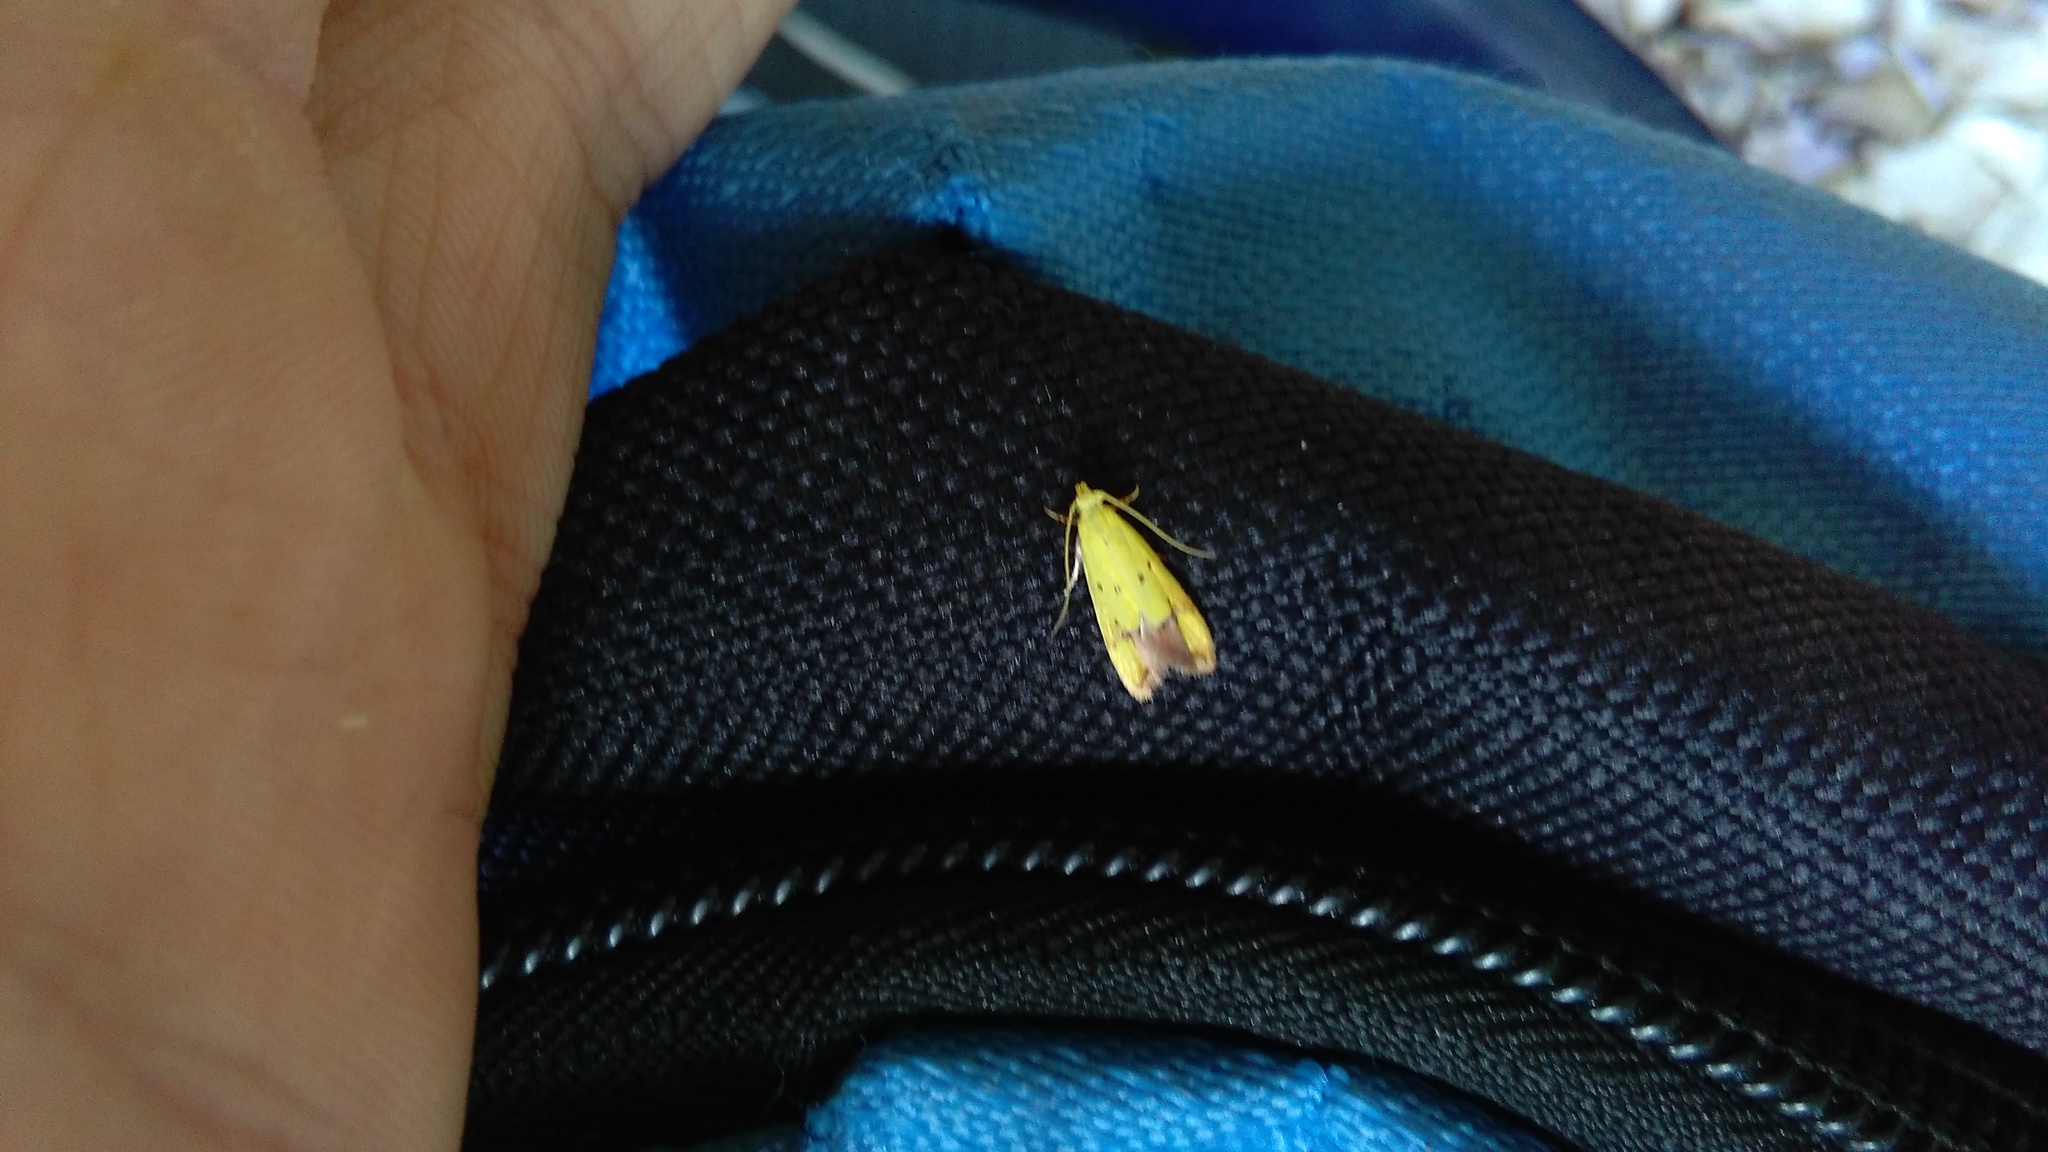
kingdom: Animalia
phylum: Arthropoda
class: Insecta
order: Lepidoptera
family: Oecophoridae
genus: Gymnobathra
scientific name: Gymnobathra flavidella
